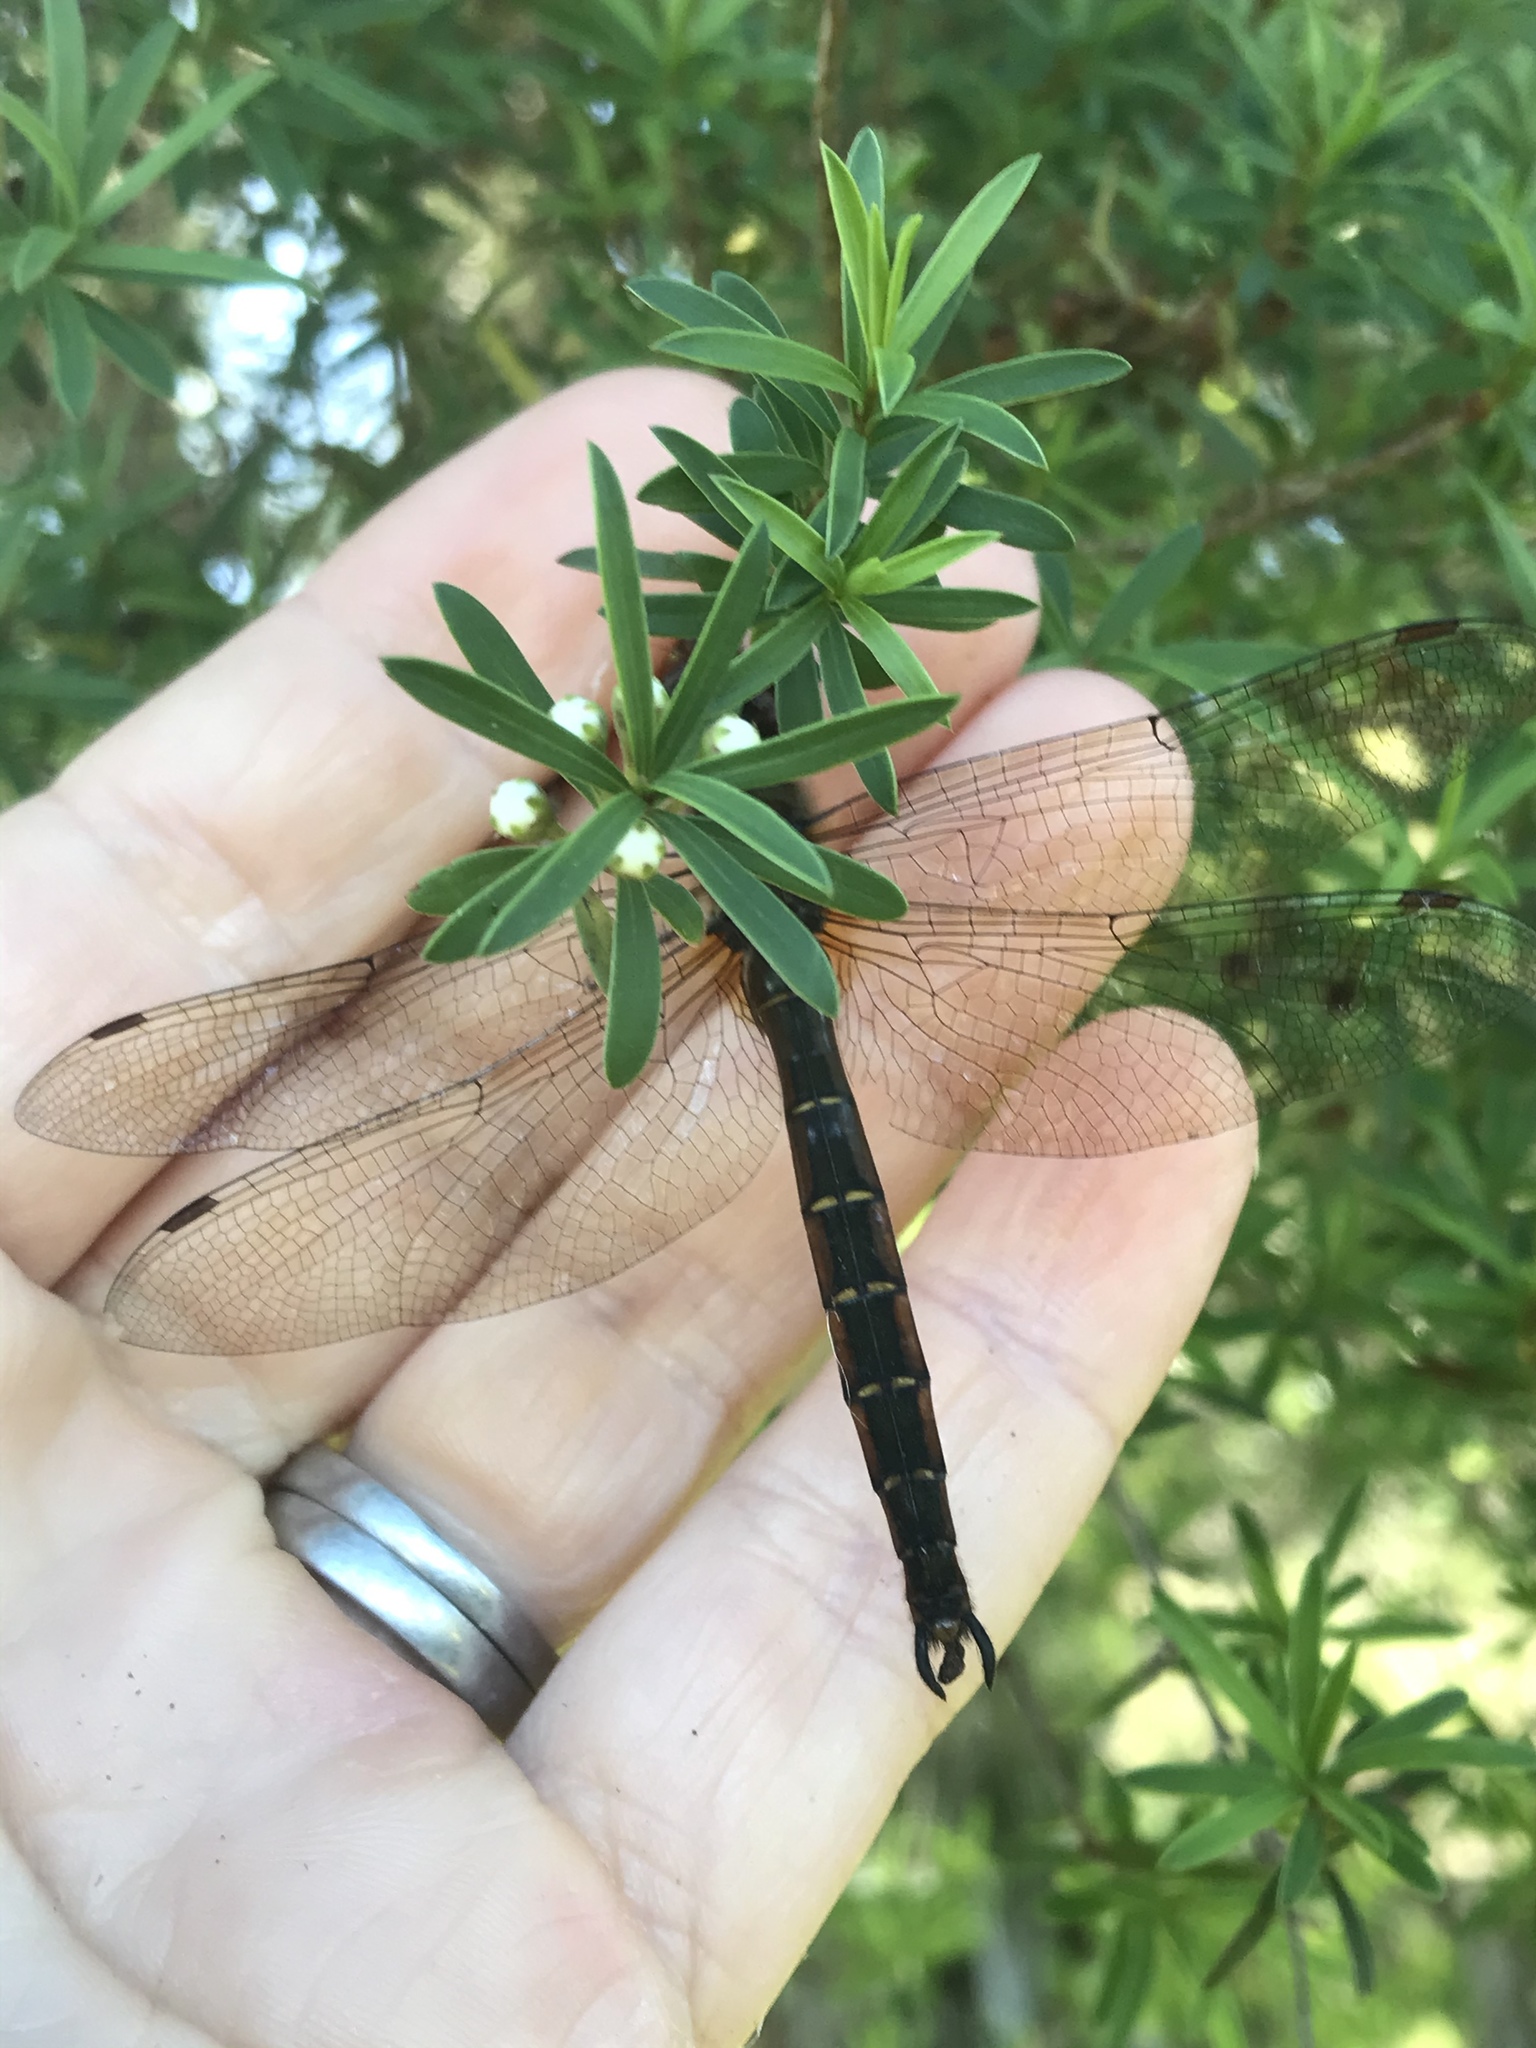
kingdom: Animalia
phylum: Arthropoda
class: Insecta
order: Odonata
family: Corduliidae
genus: Procordulia
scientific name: Procordulia smithii
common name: Ranger dragonfly
